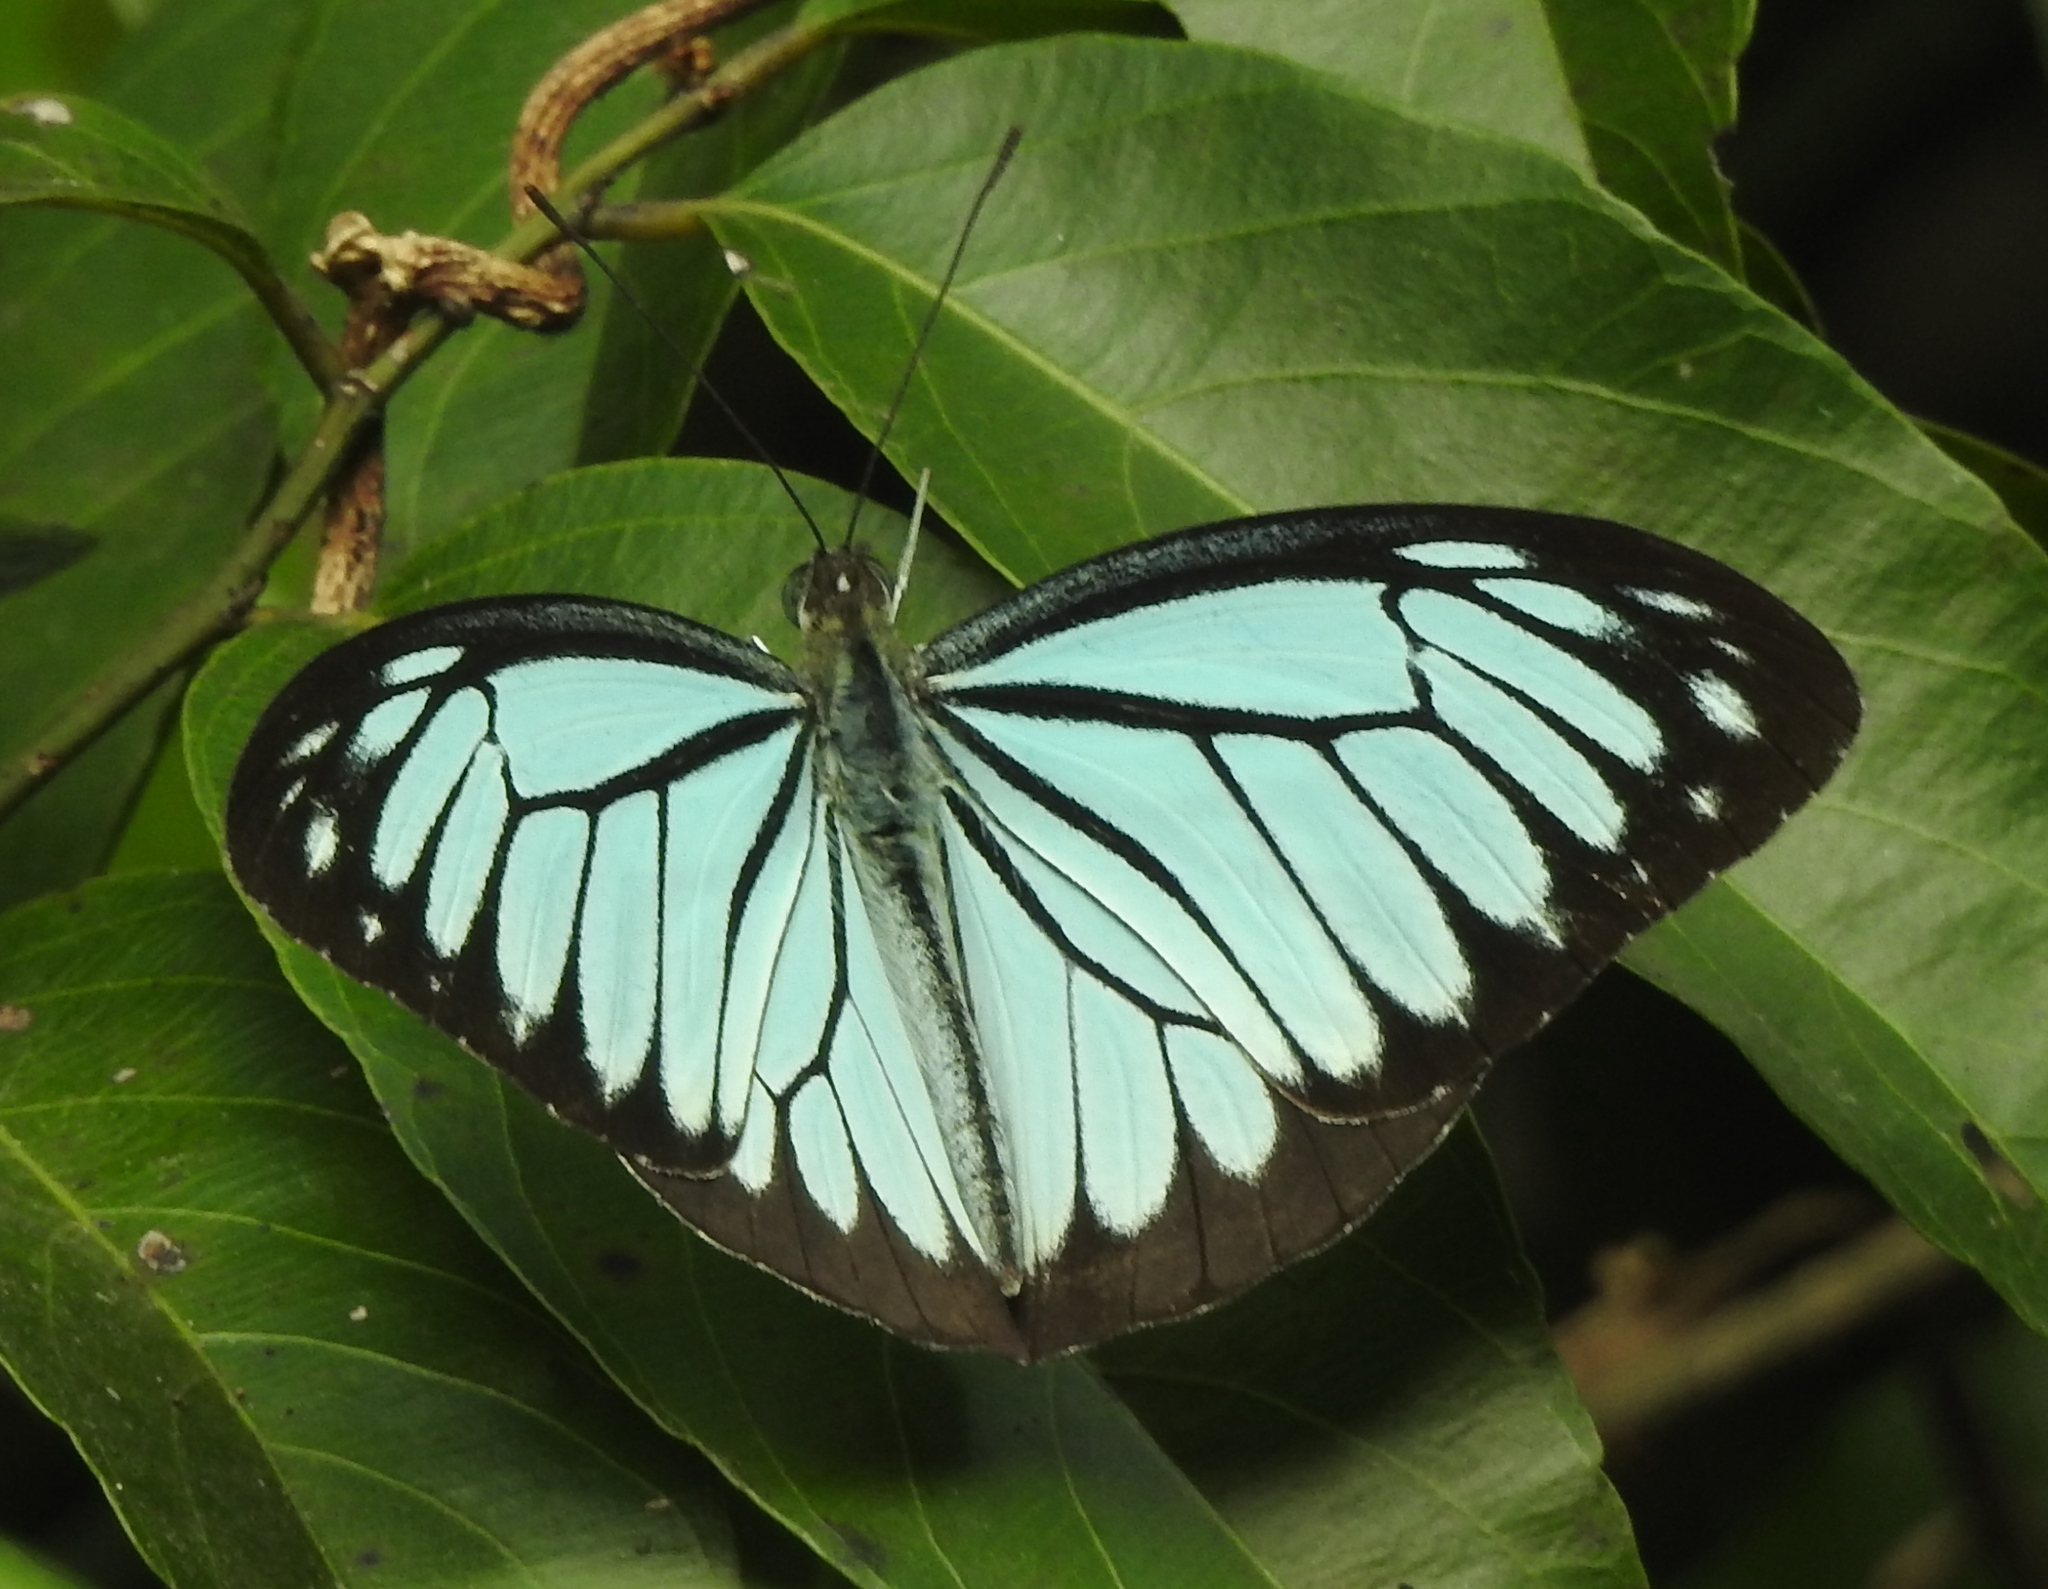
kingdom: Animalia
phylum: Arthropoda
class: Insecta
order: Lepidoptera
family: Pieridae
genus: Pareronia
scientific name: Pareronia hippia
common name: Indian wanderer
